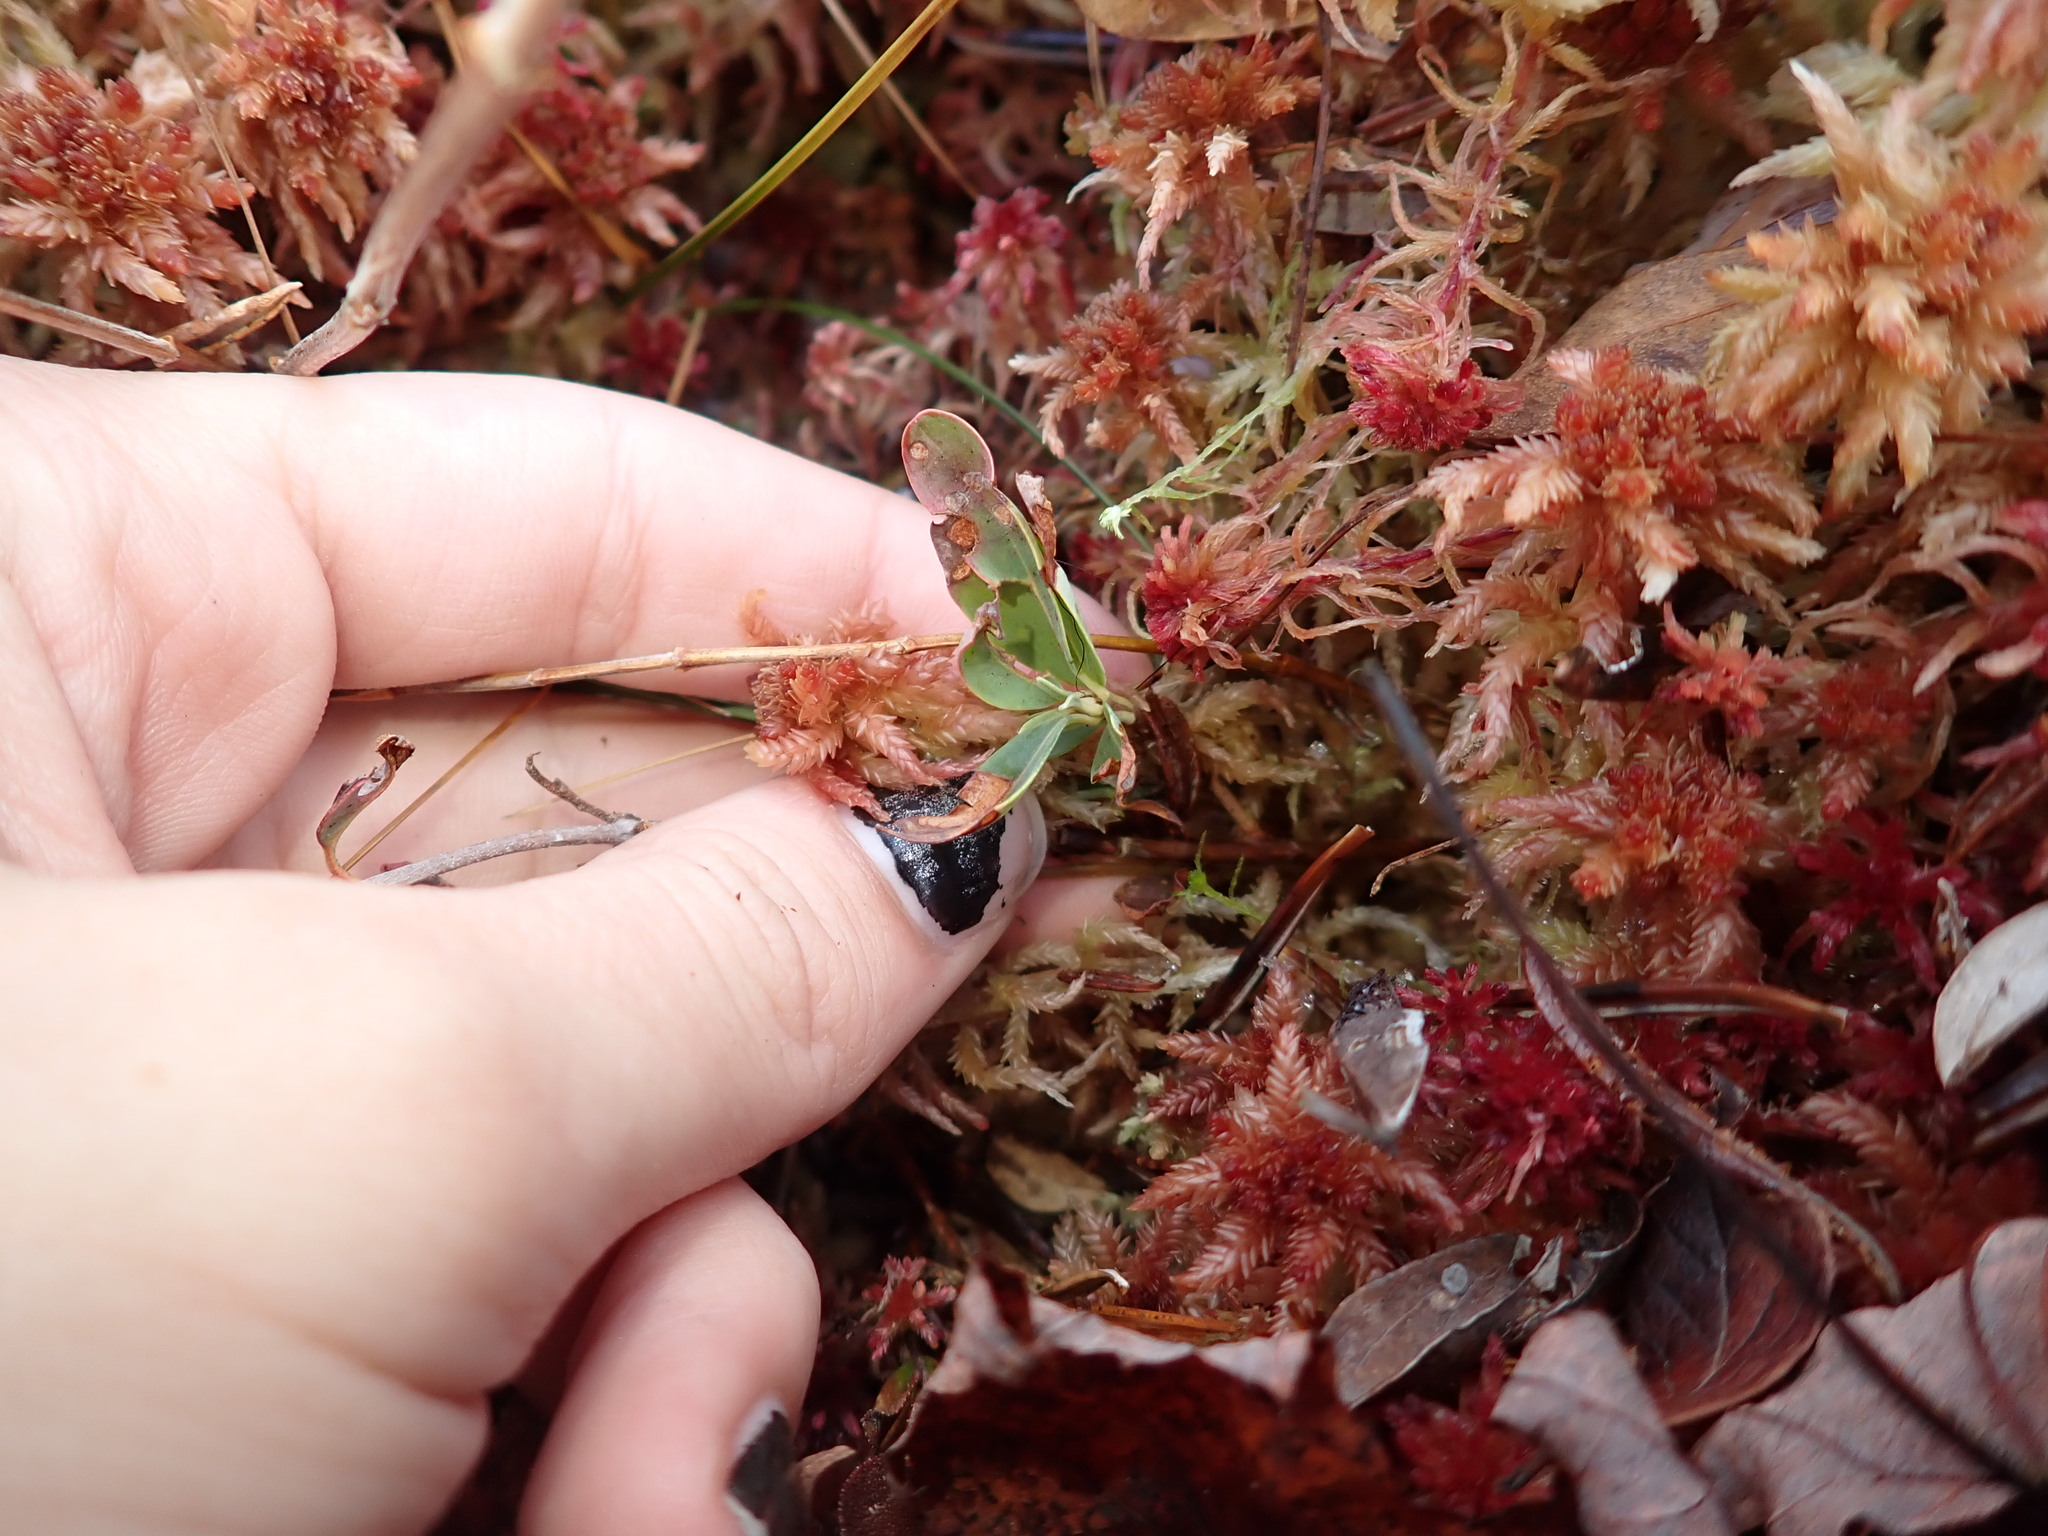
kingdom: Plantae
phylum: Tracheophyta
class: Magnoliopsida
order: Ericales
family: Ericaceae
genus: Kalmia
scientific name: Kalmia angustifolia
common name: Sheep-laurel
